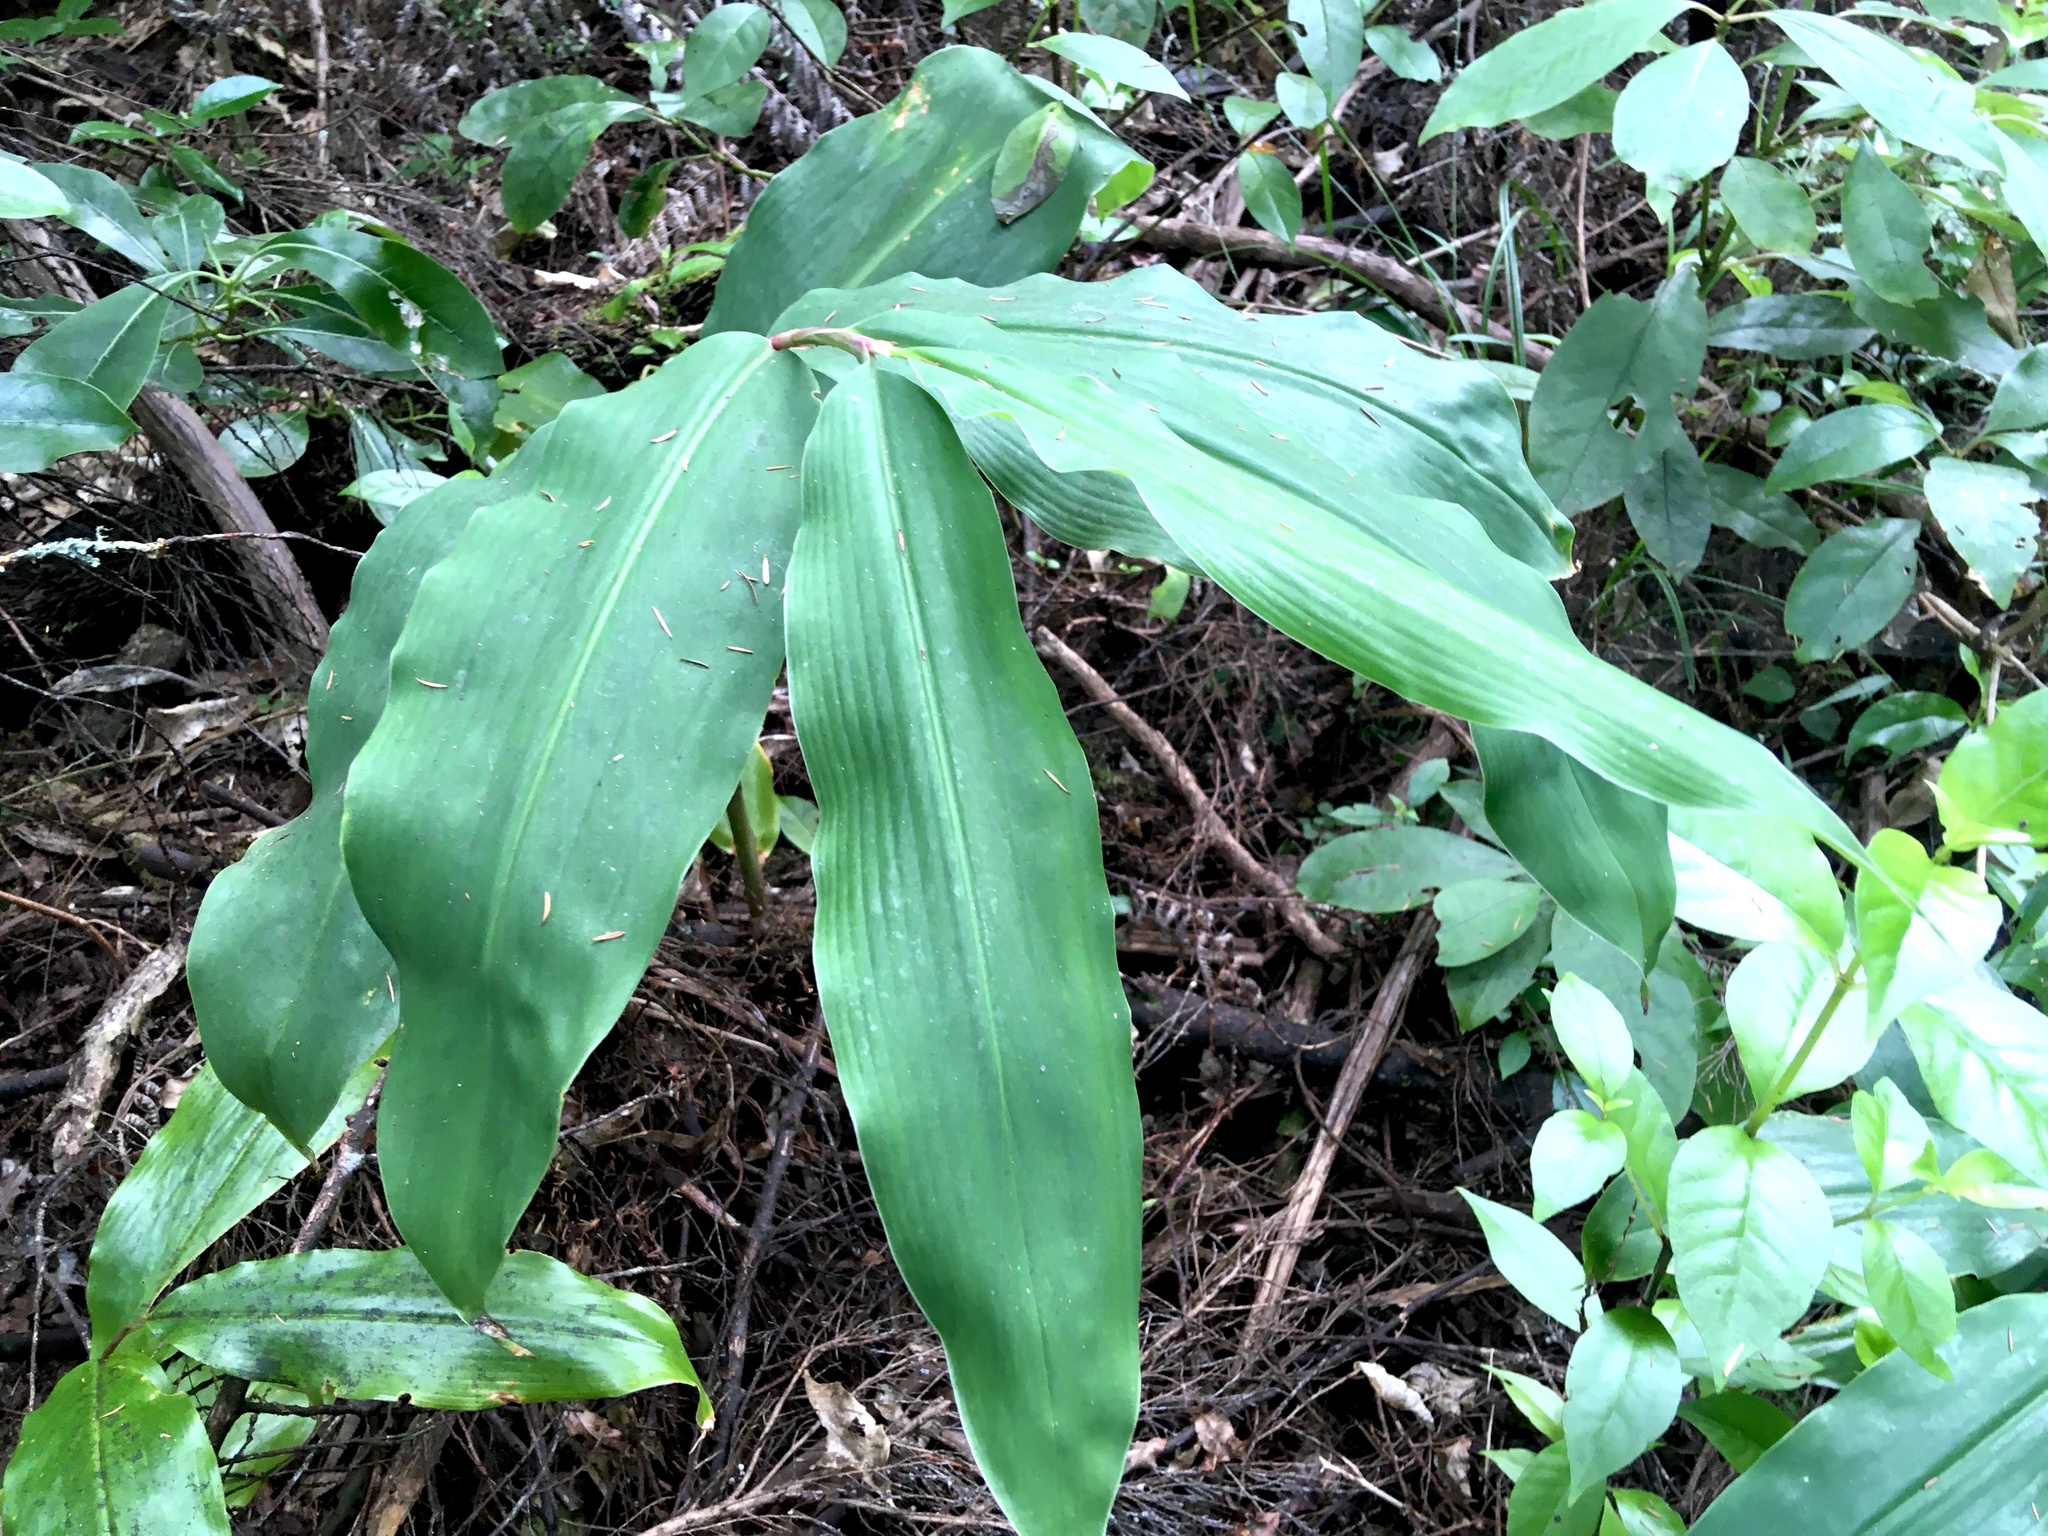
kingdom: Plantae
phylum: Tracheophyta
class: Liliopsida
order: Zingiberales
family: Zingiberaceae
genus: Hedychium
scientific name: Hedychium gardnerianum
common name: Himalayan ginger
